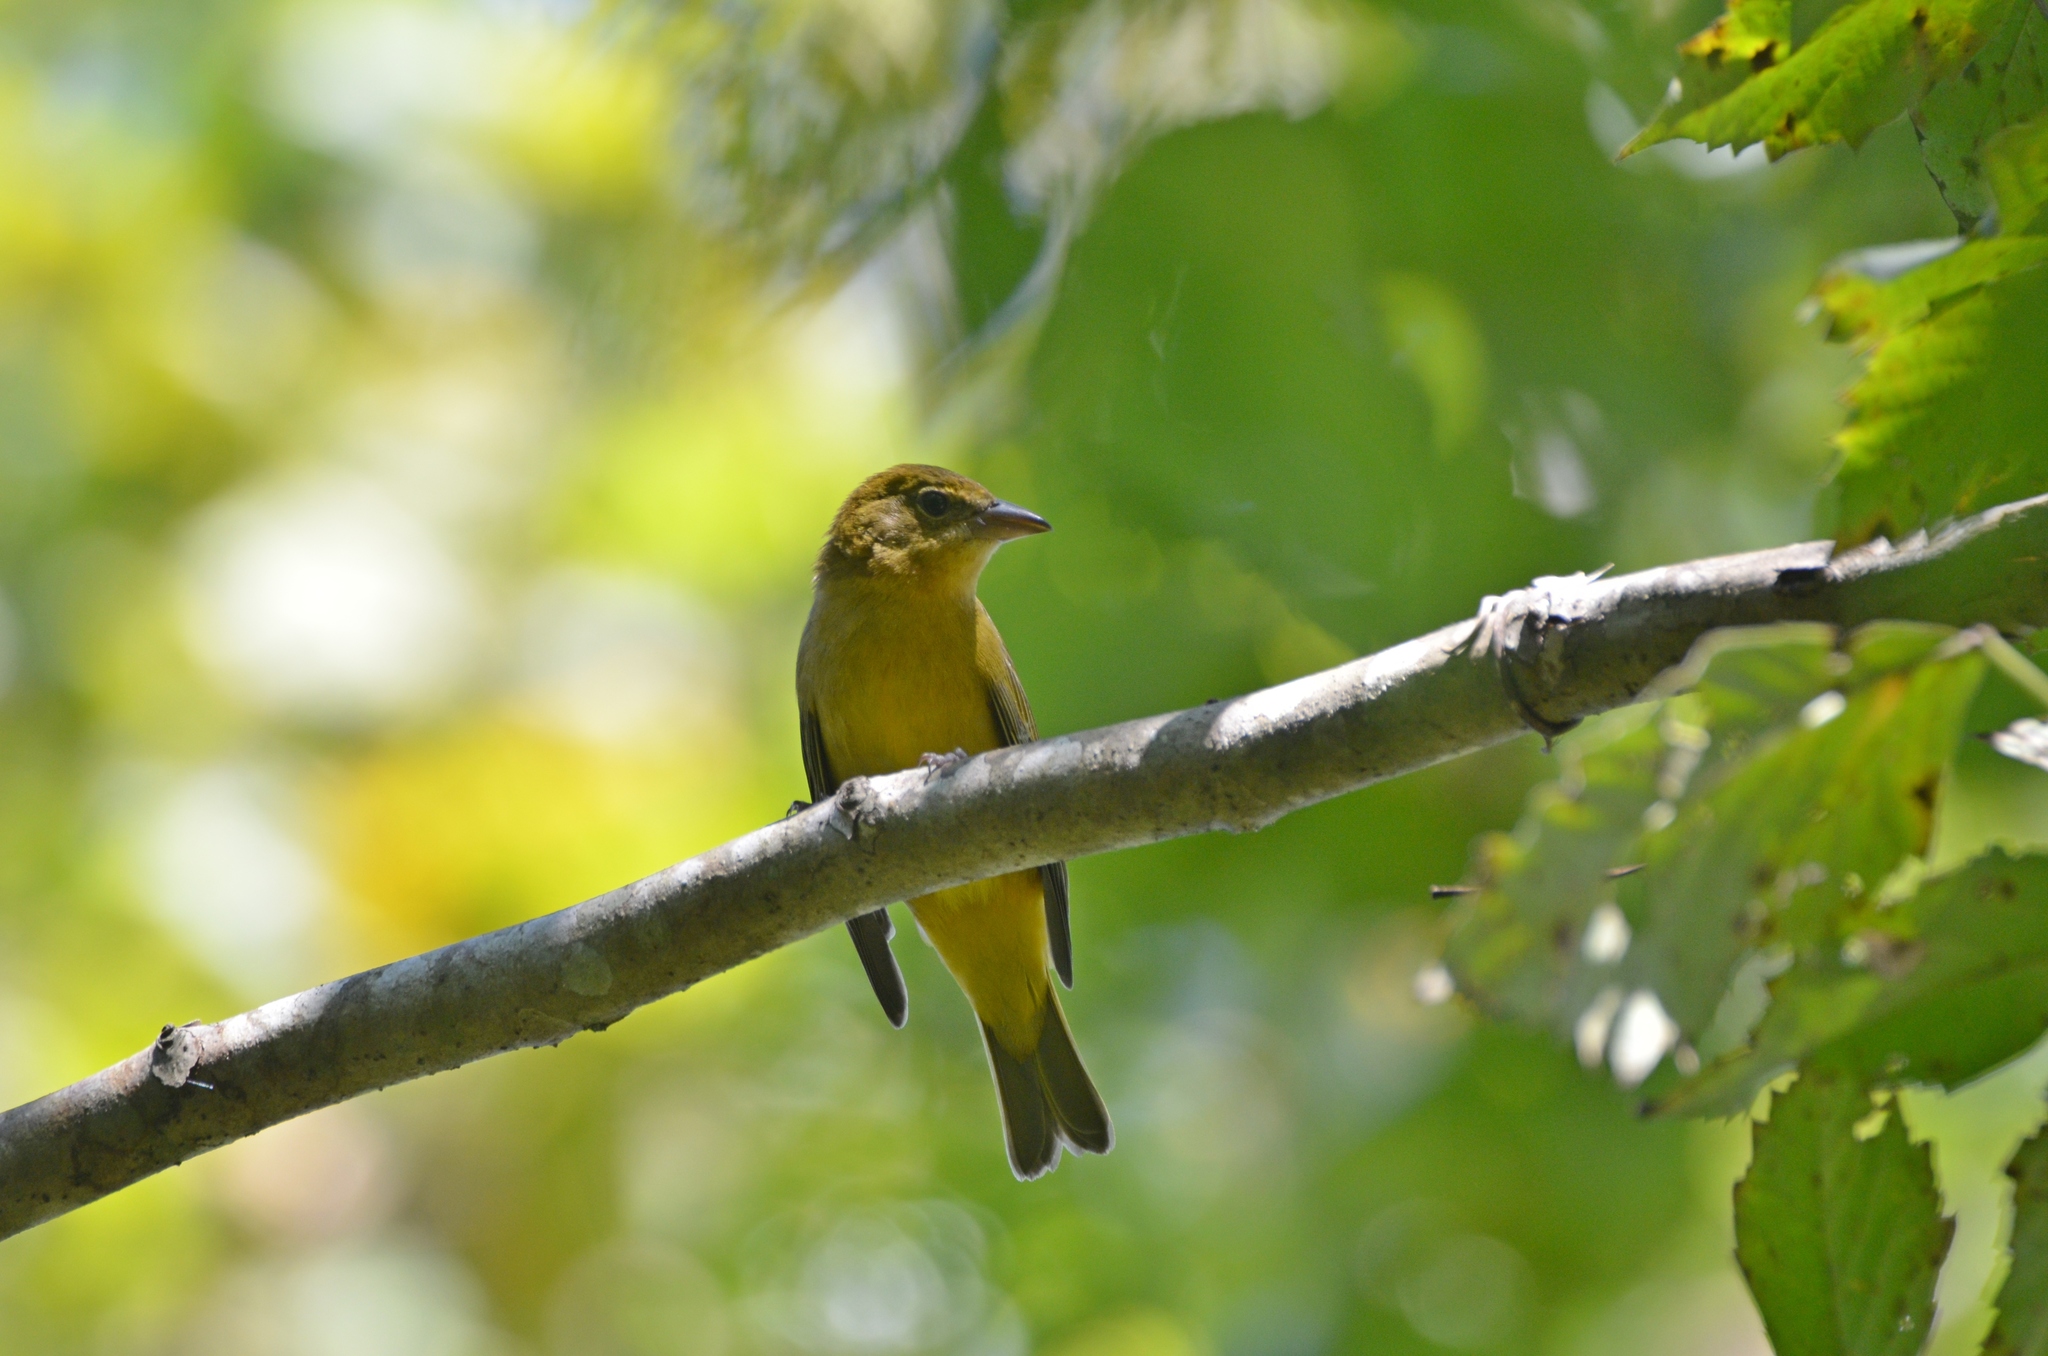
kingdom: Animalia
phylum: Chordata
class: Aves
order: Passeriformes
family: Cardinalidae
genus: Piranga
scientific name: Piranga olivacea
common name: Scarlet tanager
